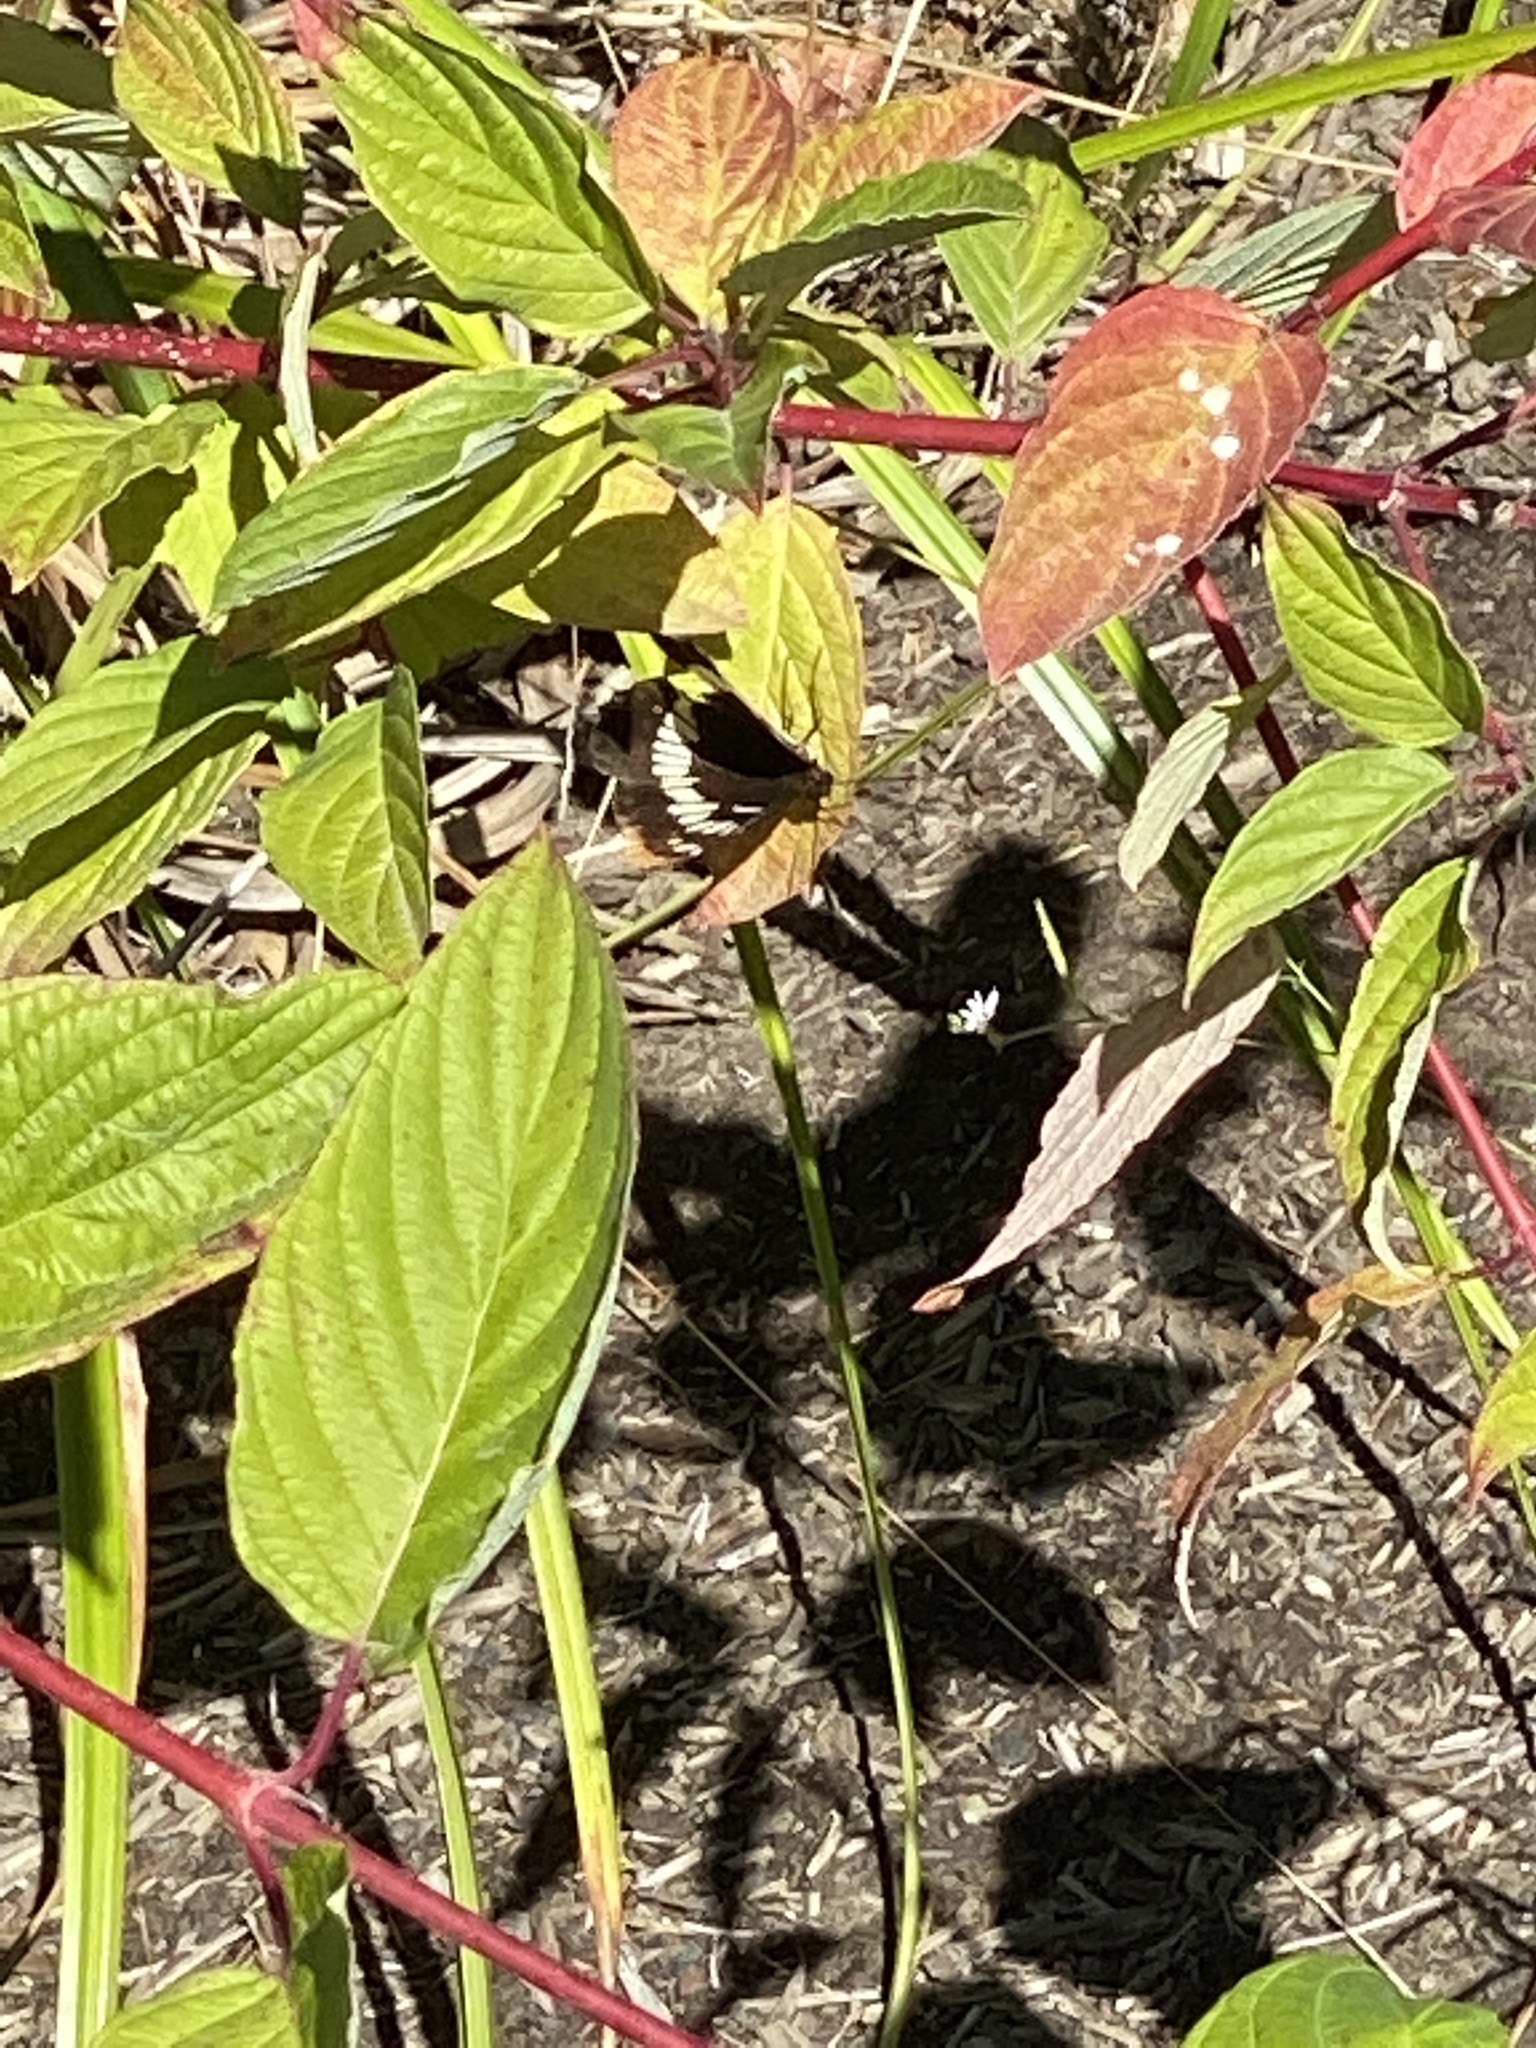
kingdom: Animalia
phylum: Arthropoda
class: Insecta
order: Lepidoptera
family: Nymphalidae
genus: Limenitis
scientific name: Limenitis lorquini
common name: Lorquin's admiral
